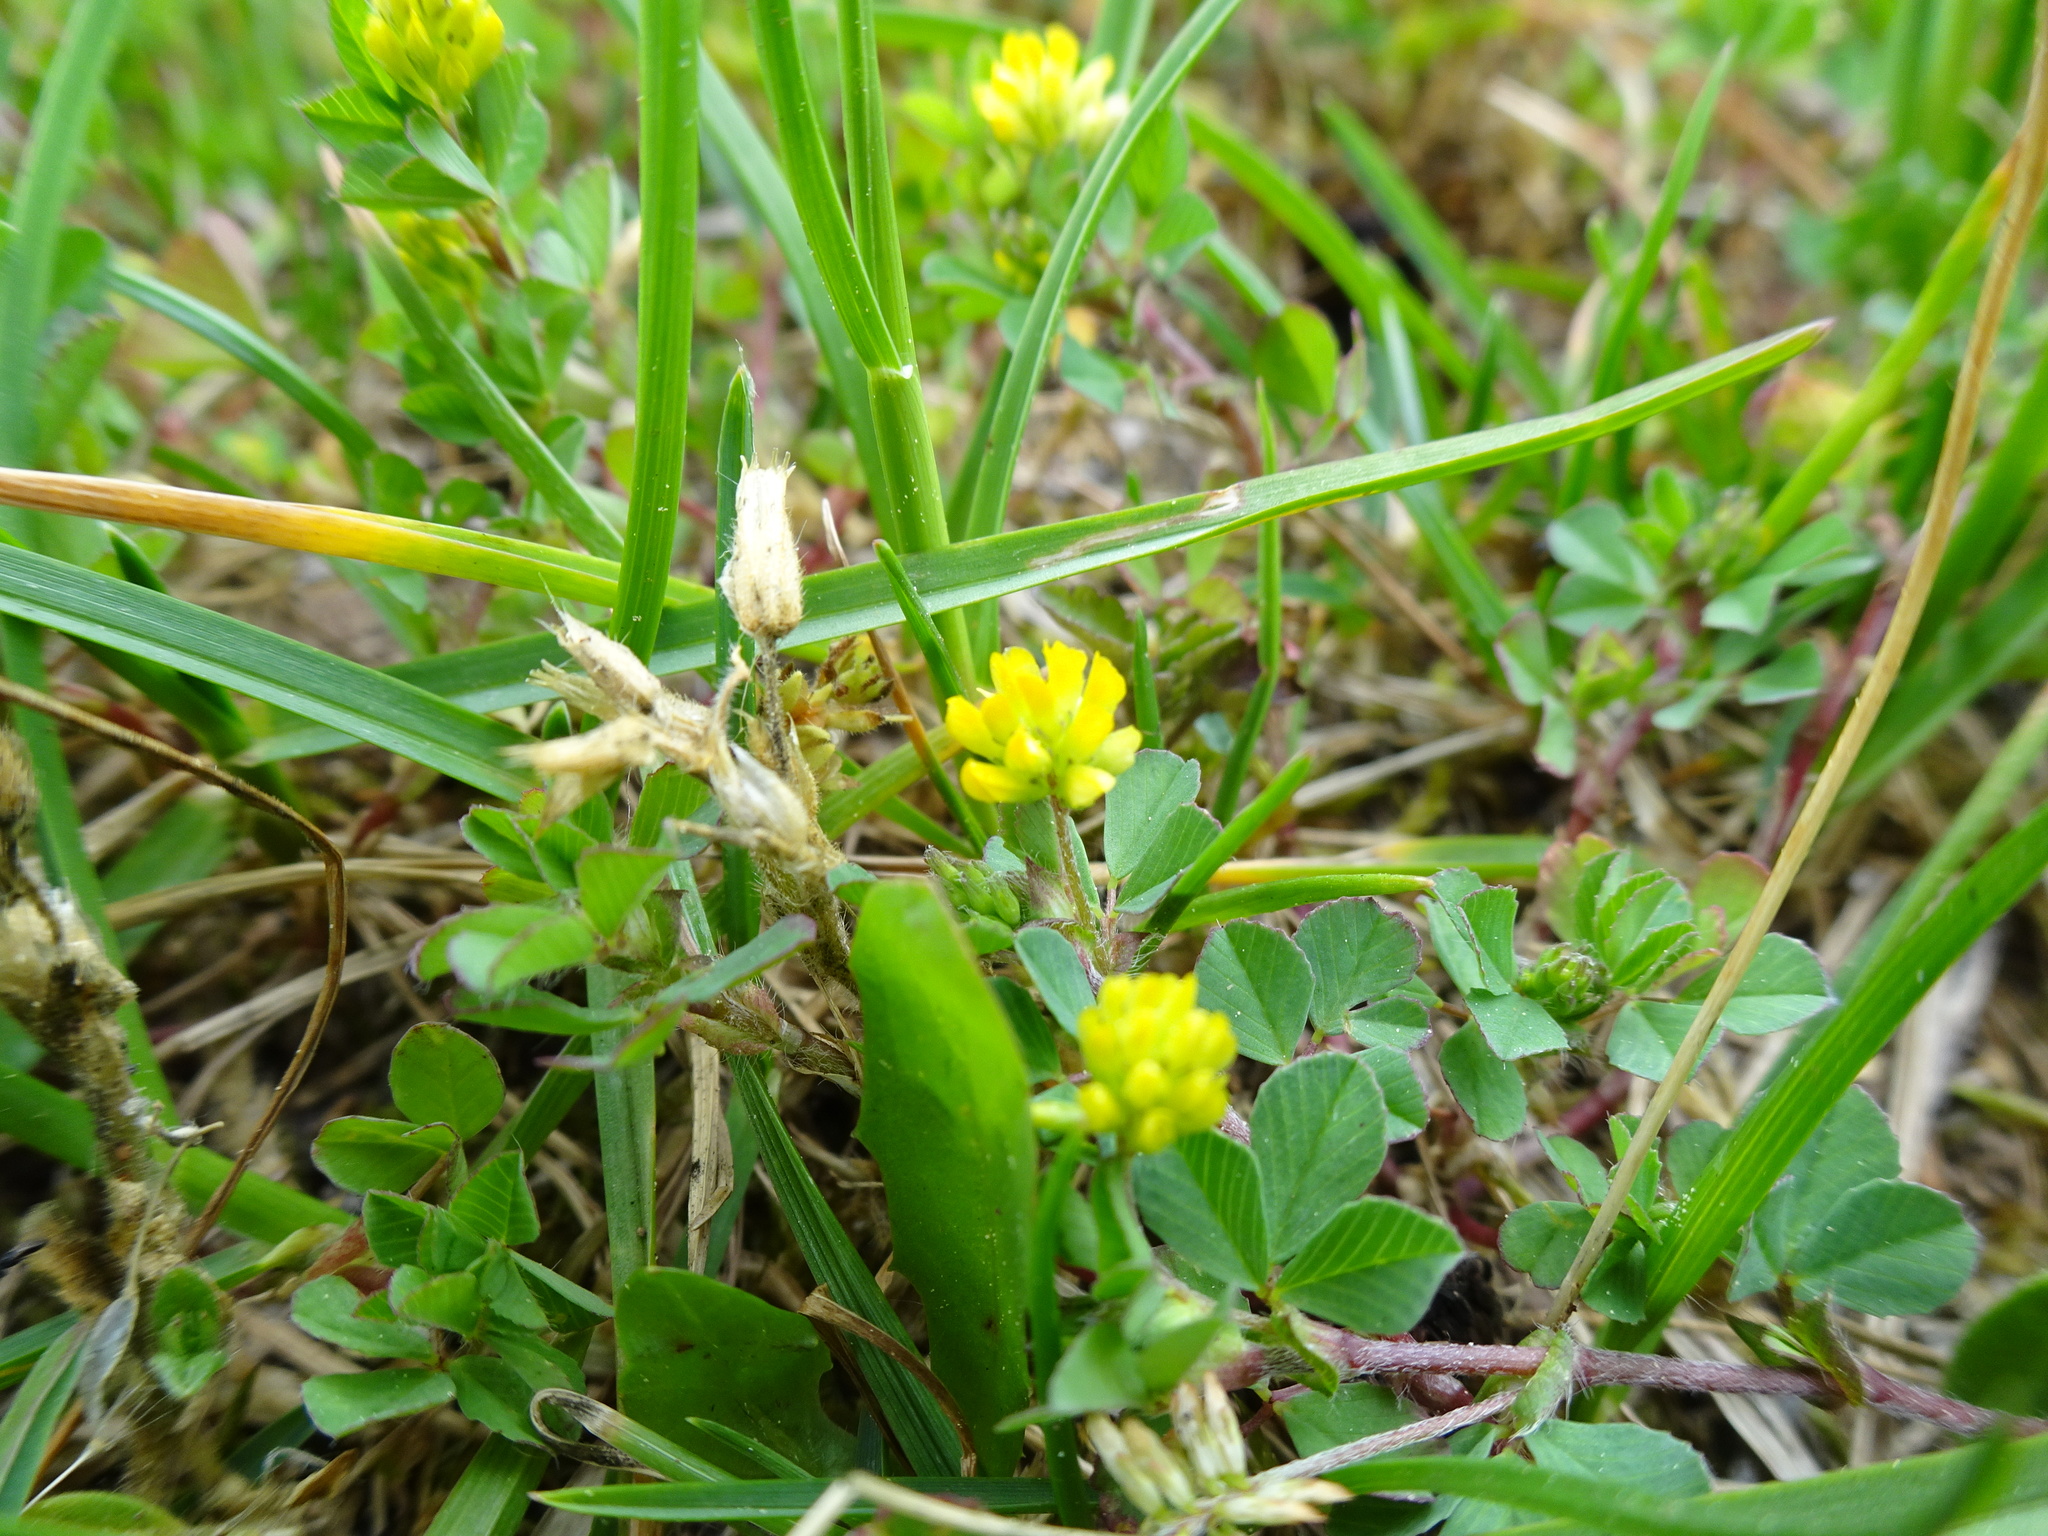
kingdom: Plantae
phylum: Tracheophyta
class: Magnoliopsida
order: Fabales
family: Fabaceae
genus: Trifolium
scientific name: Trifolium dubium
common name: Suckling clover
